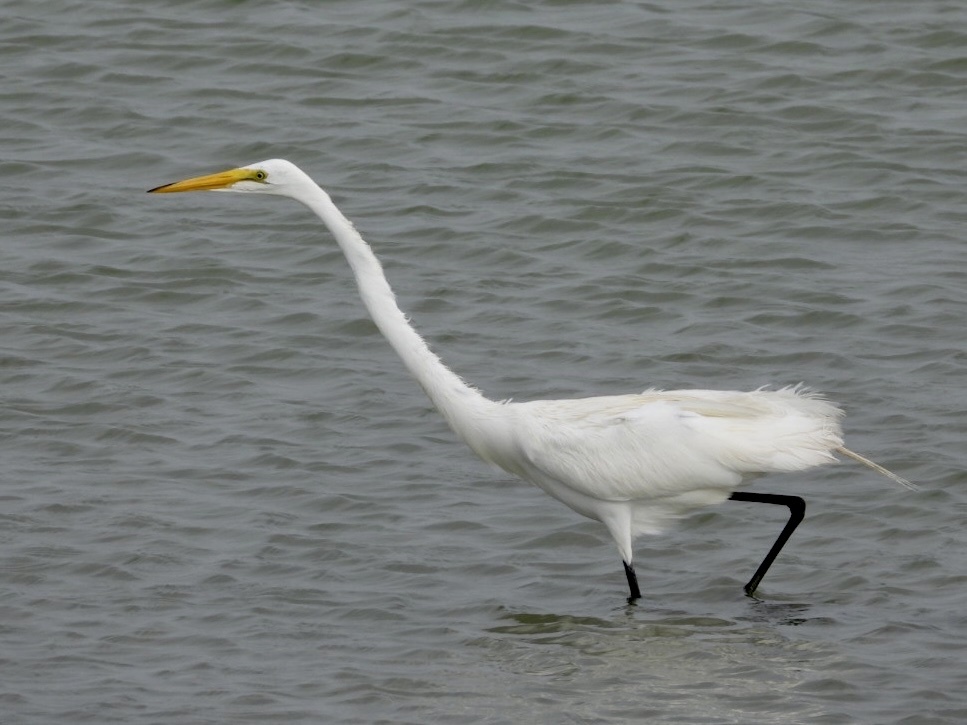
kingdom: Animalia
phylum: Chordata
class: Aves
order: Pelecaniformes
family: Ardeidae
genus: Ardea
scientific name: Ardea alba
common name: Great egret
